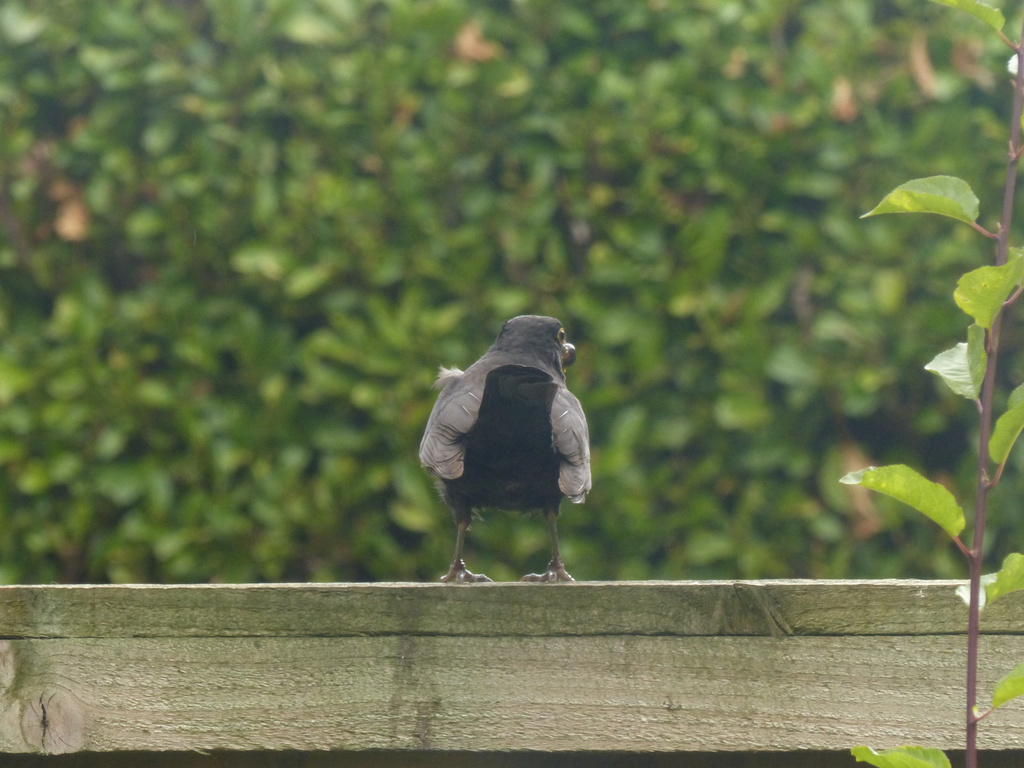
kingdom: Animalia
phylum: Chordata
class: Aves
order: Passeriformes
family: Turdidae
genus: Turdus
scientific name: Turdus merula
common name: Common blackbird
